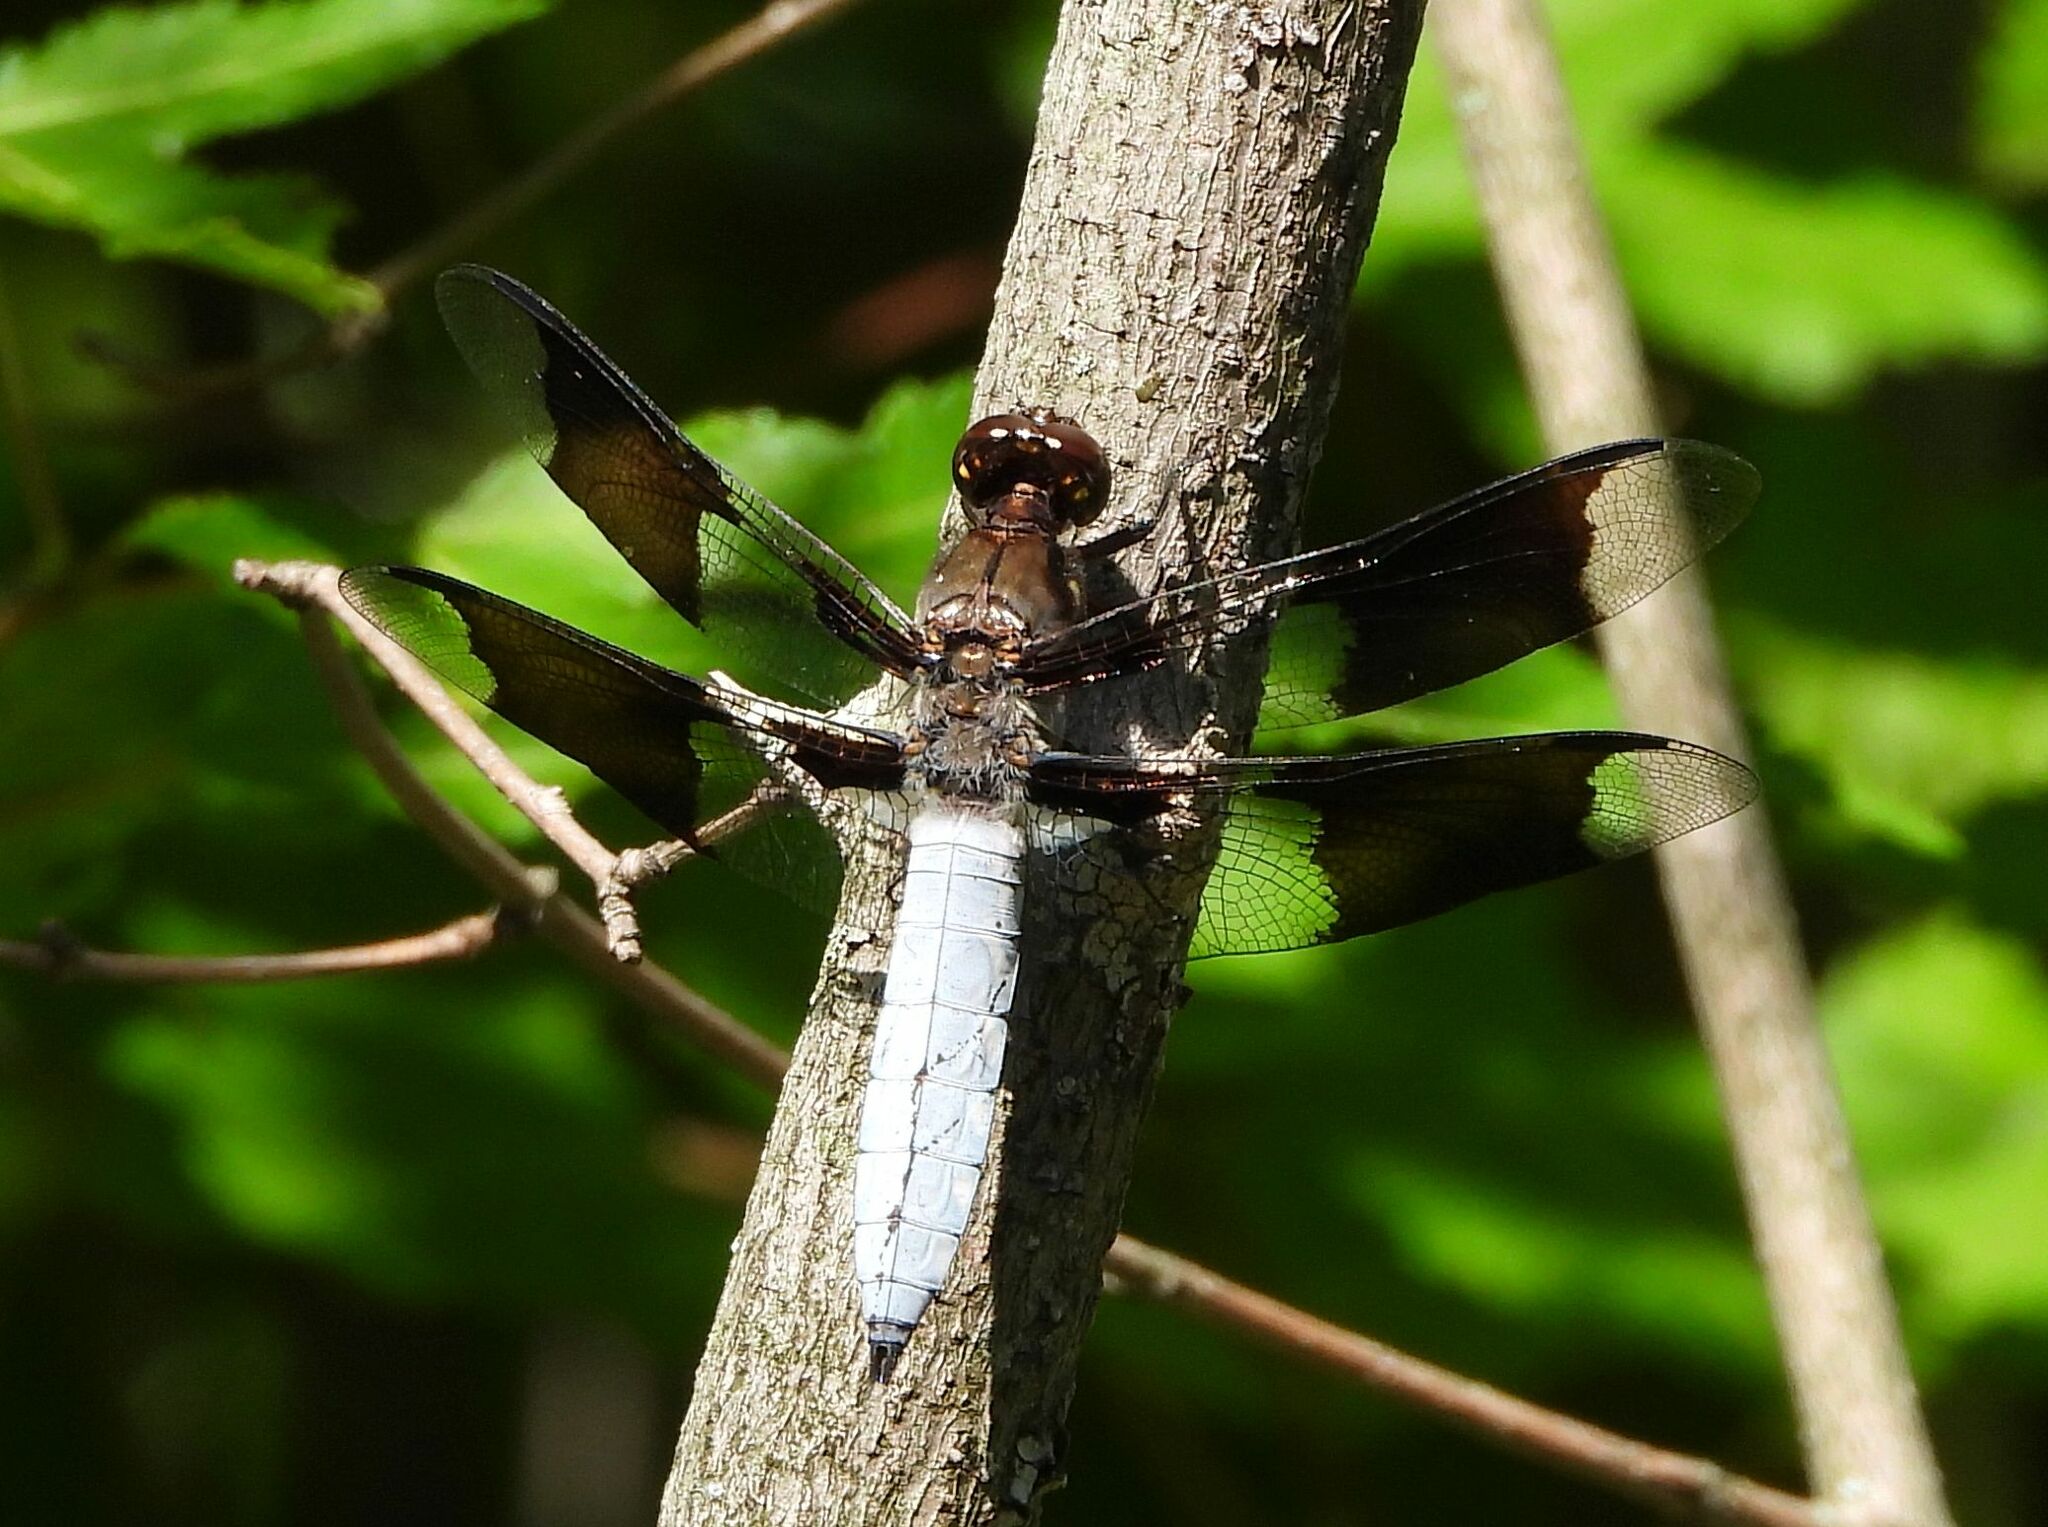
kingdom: Animalia
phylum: Arthropoda
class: Insecta
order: Odonata
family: Libellulidae
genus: Plathemis
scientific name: Plathemis lydia
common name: Common whitetail
